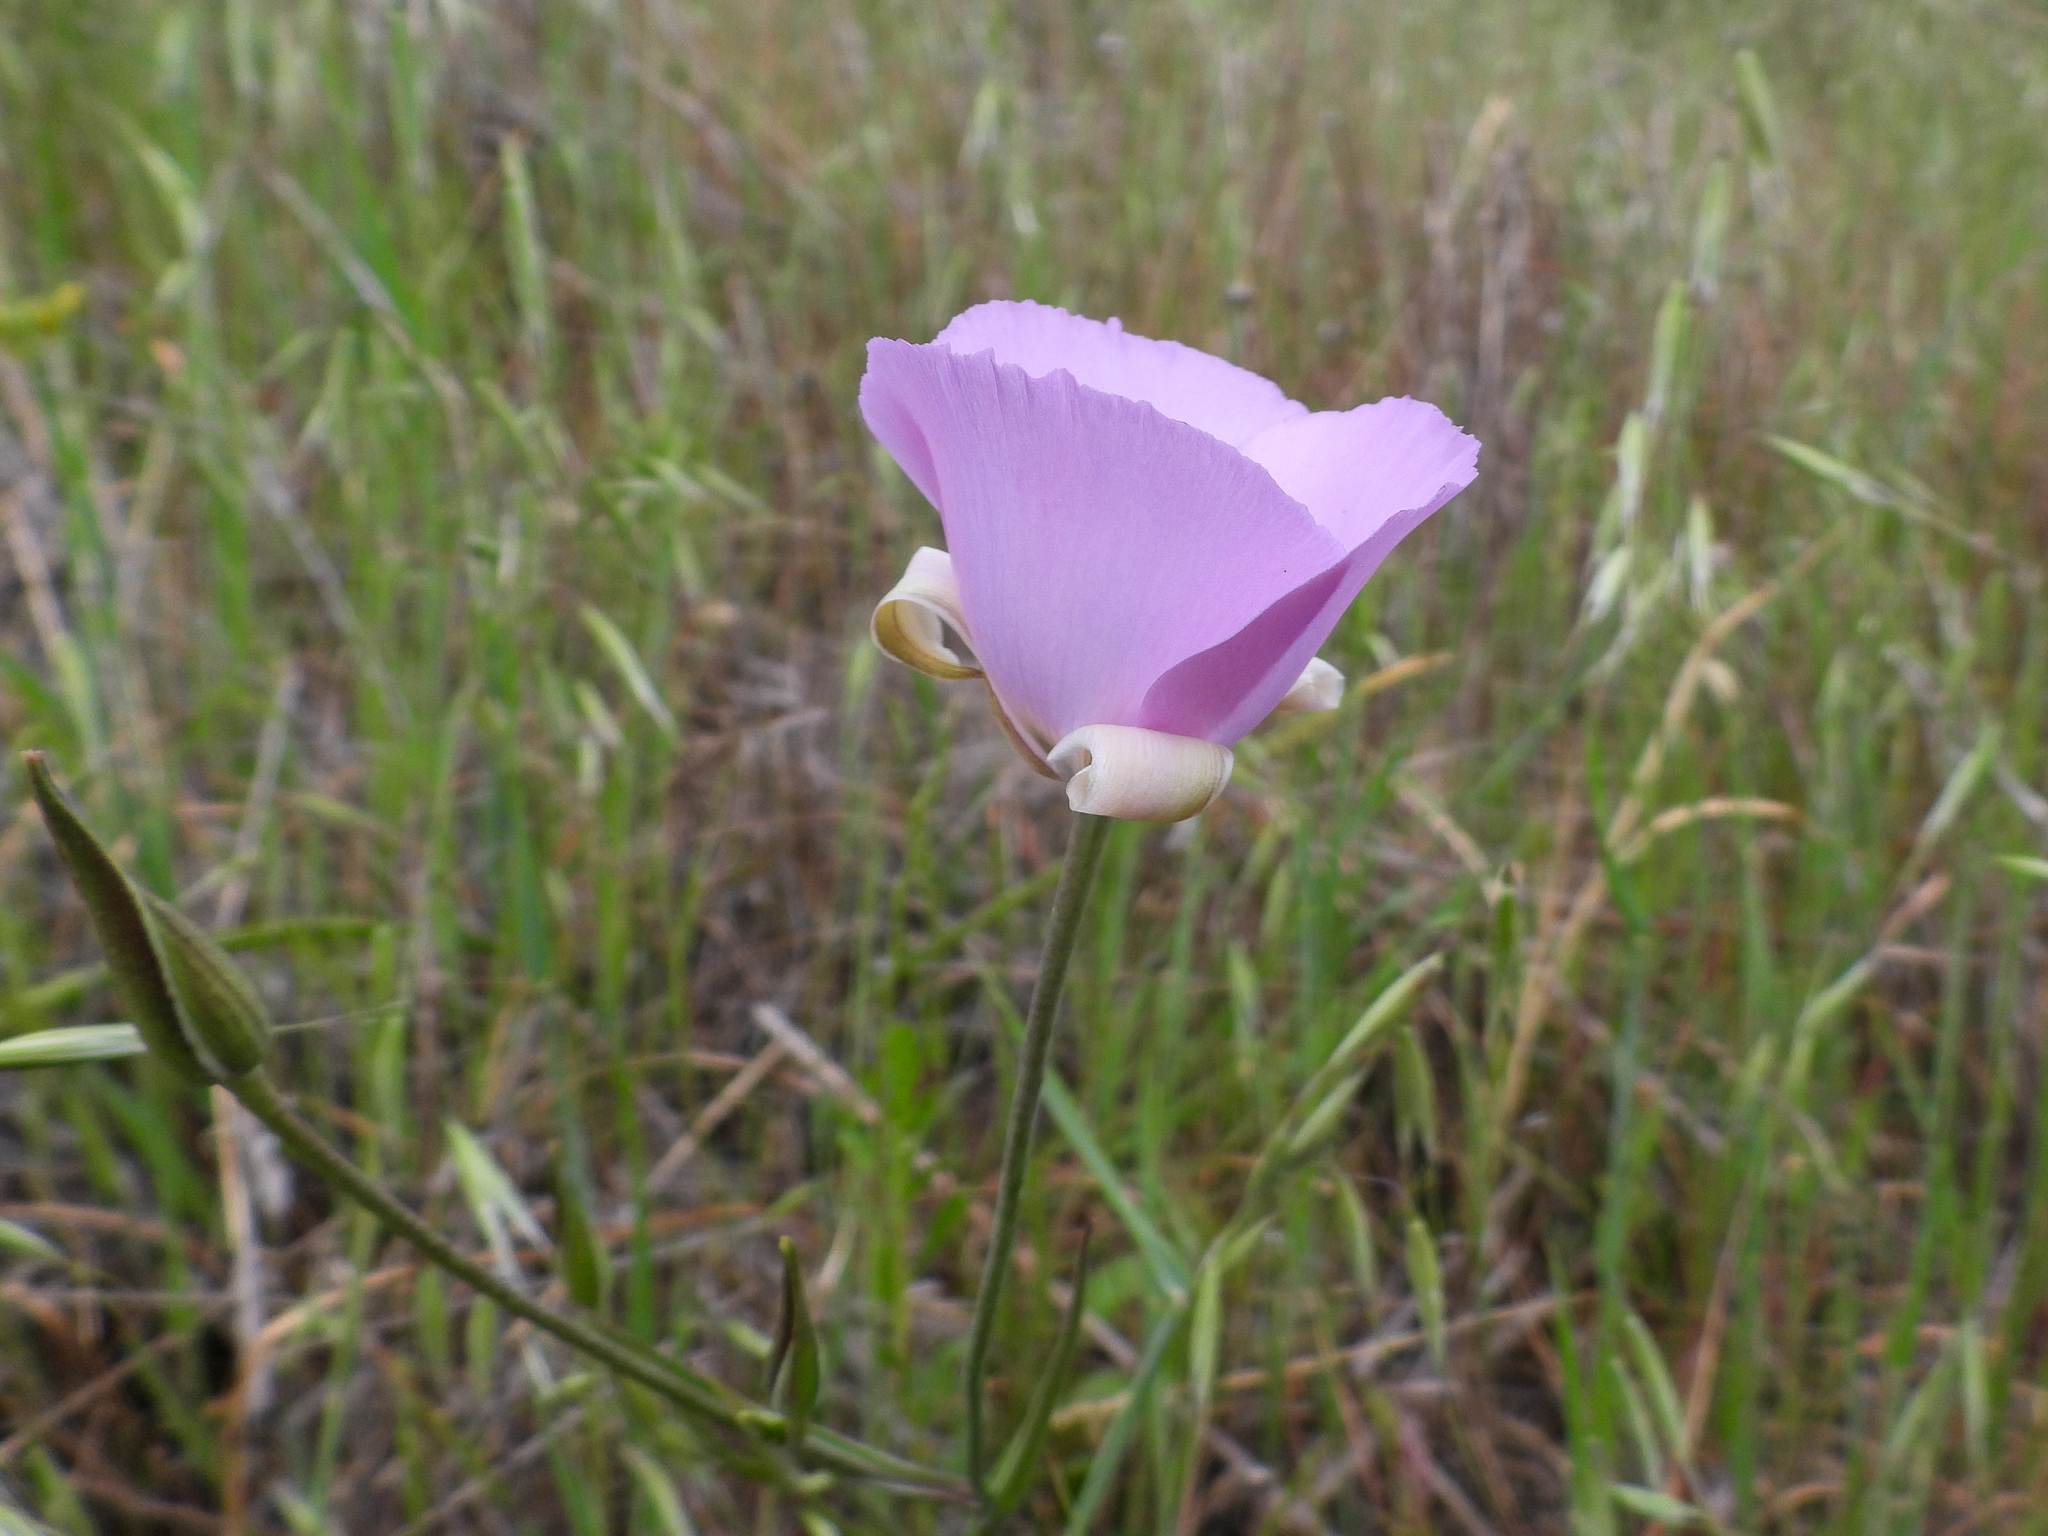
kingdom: Plantae
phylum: Tracheophyta
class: Liliopsida
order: Liliales
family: Liliaceae
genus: Calochortus
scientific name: Calochortus splendens
